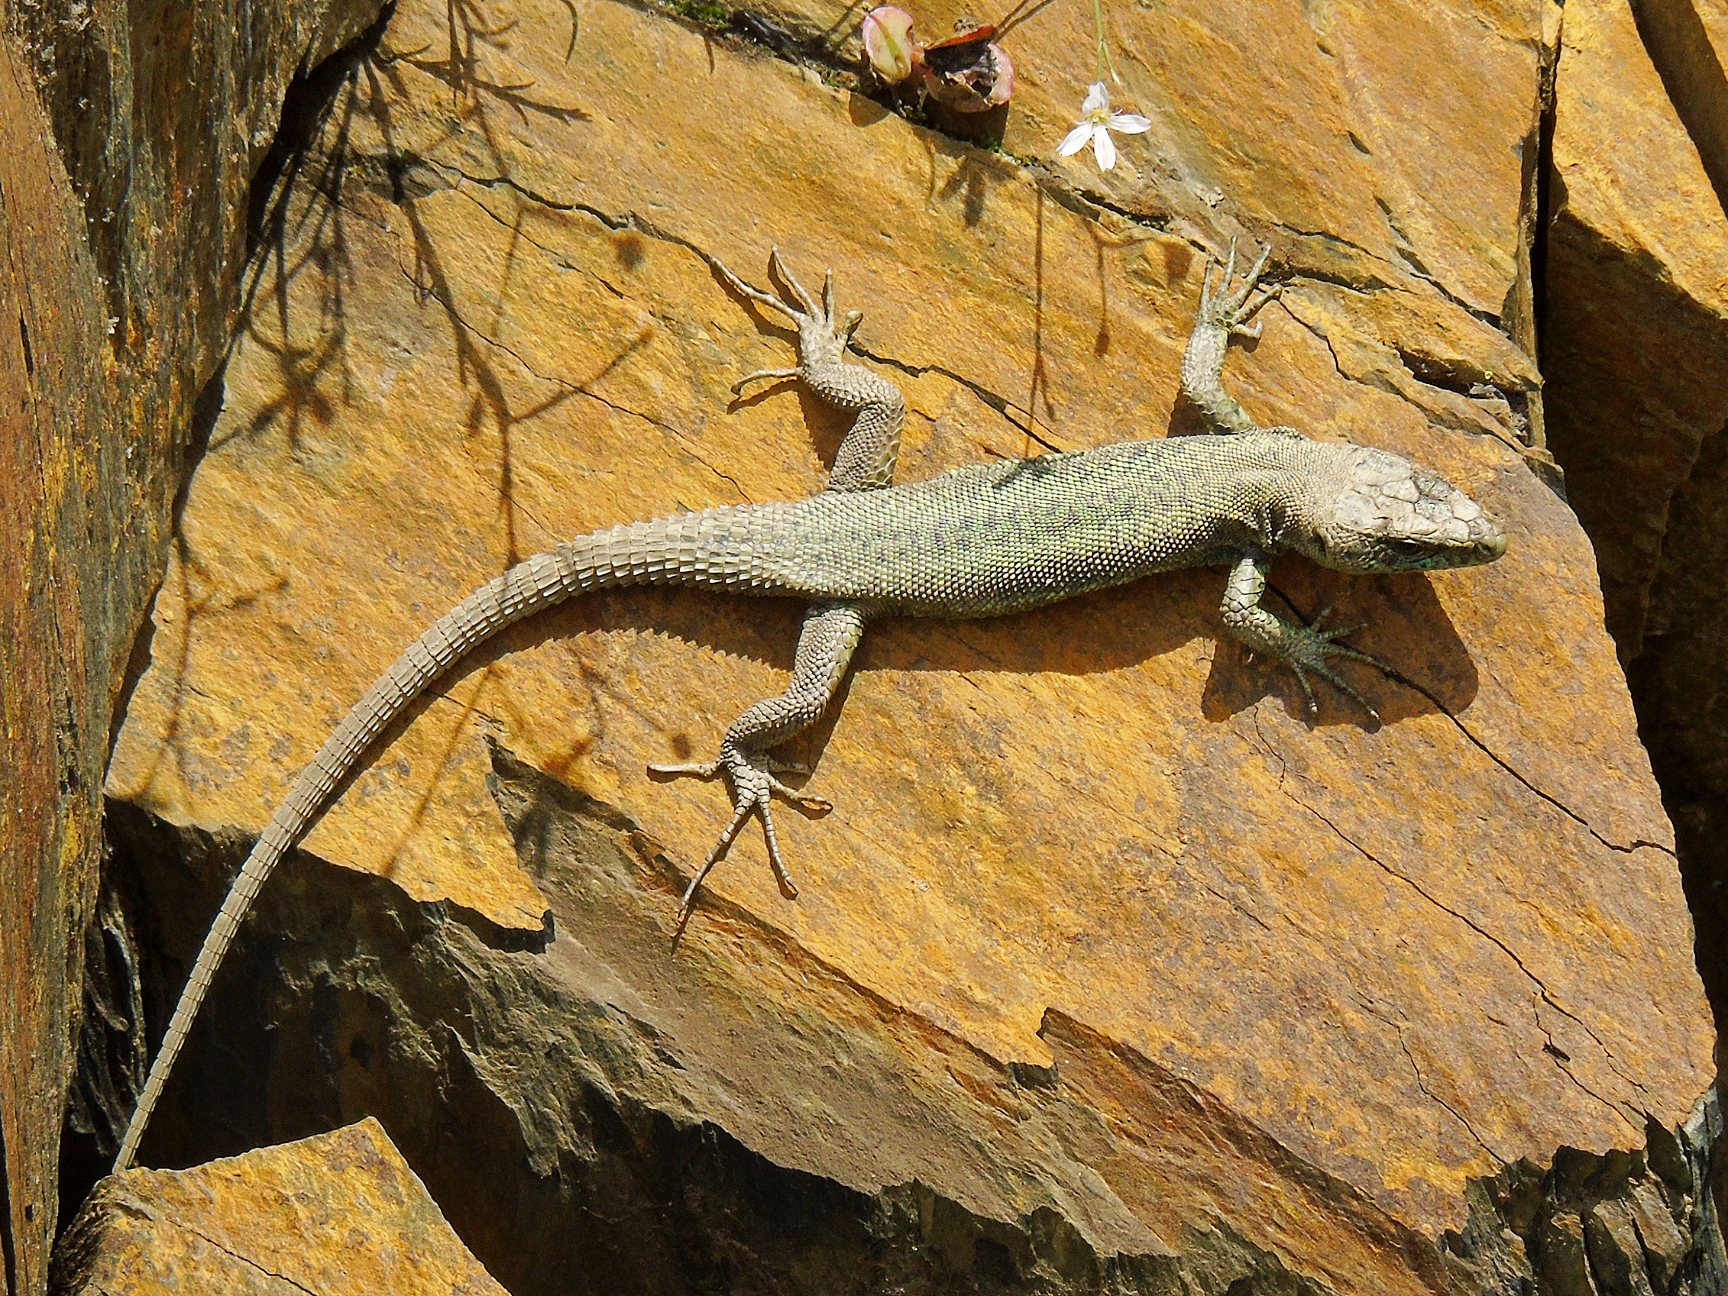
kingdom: Animalia
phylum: Chordata
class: Squamata
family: Lacertidae
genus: Darevskia
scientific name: Darevskia brauneri
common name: Brauner's rock lizard
